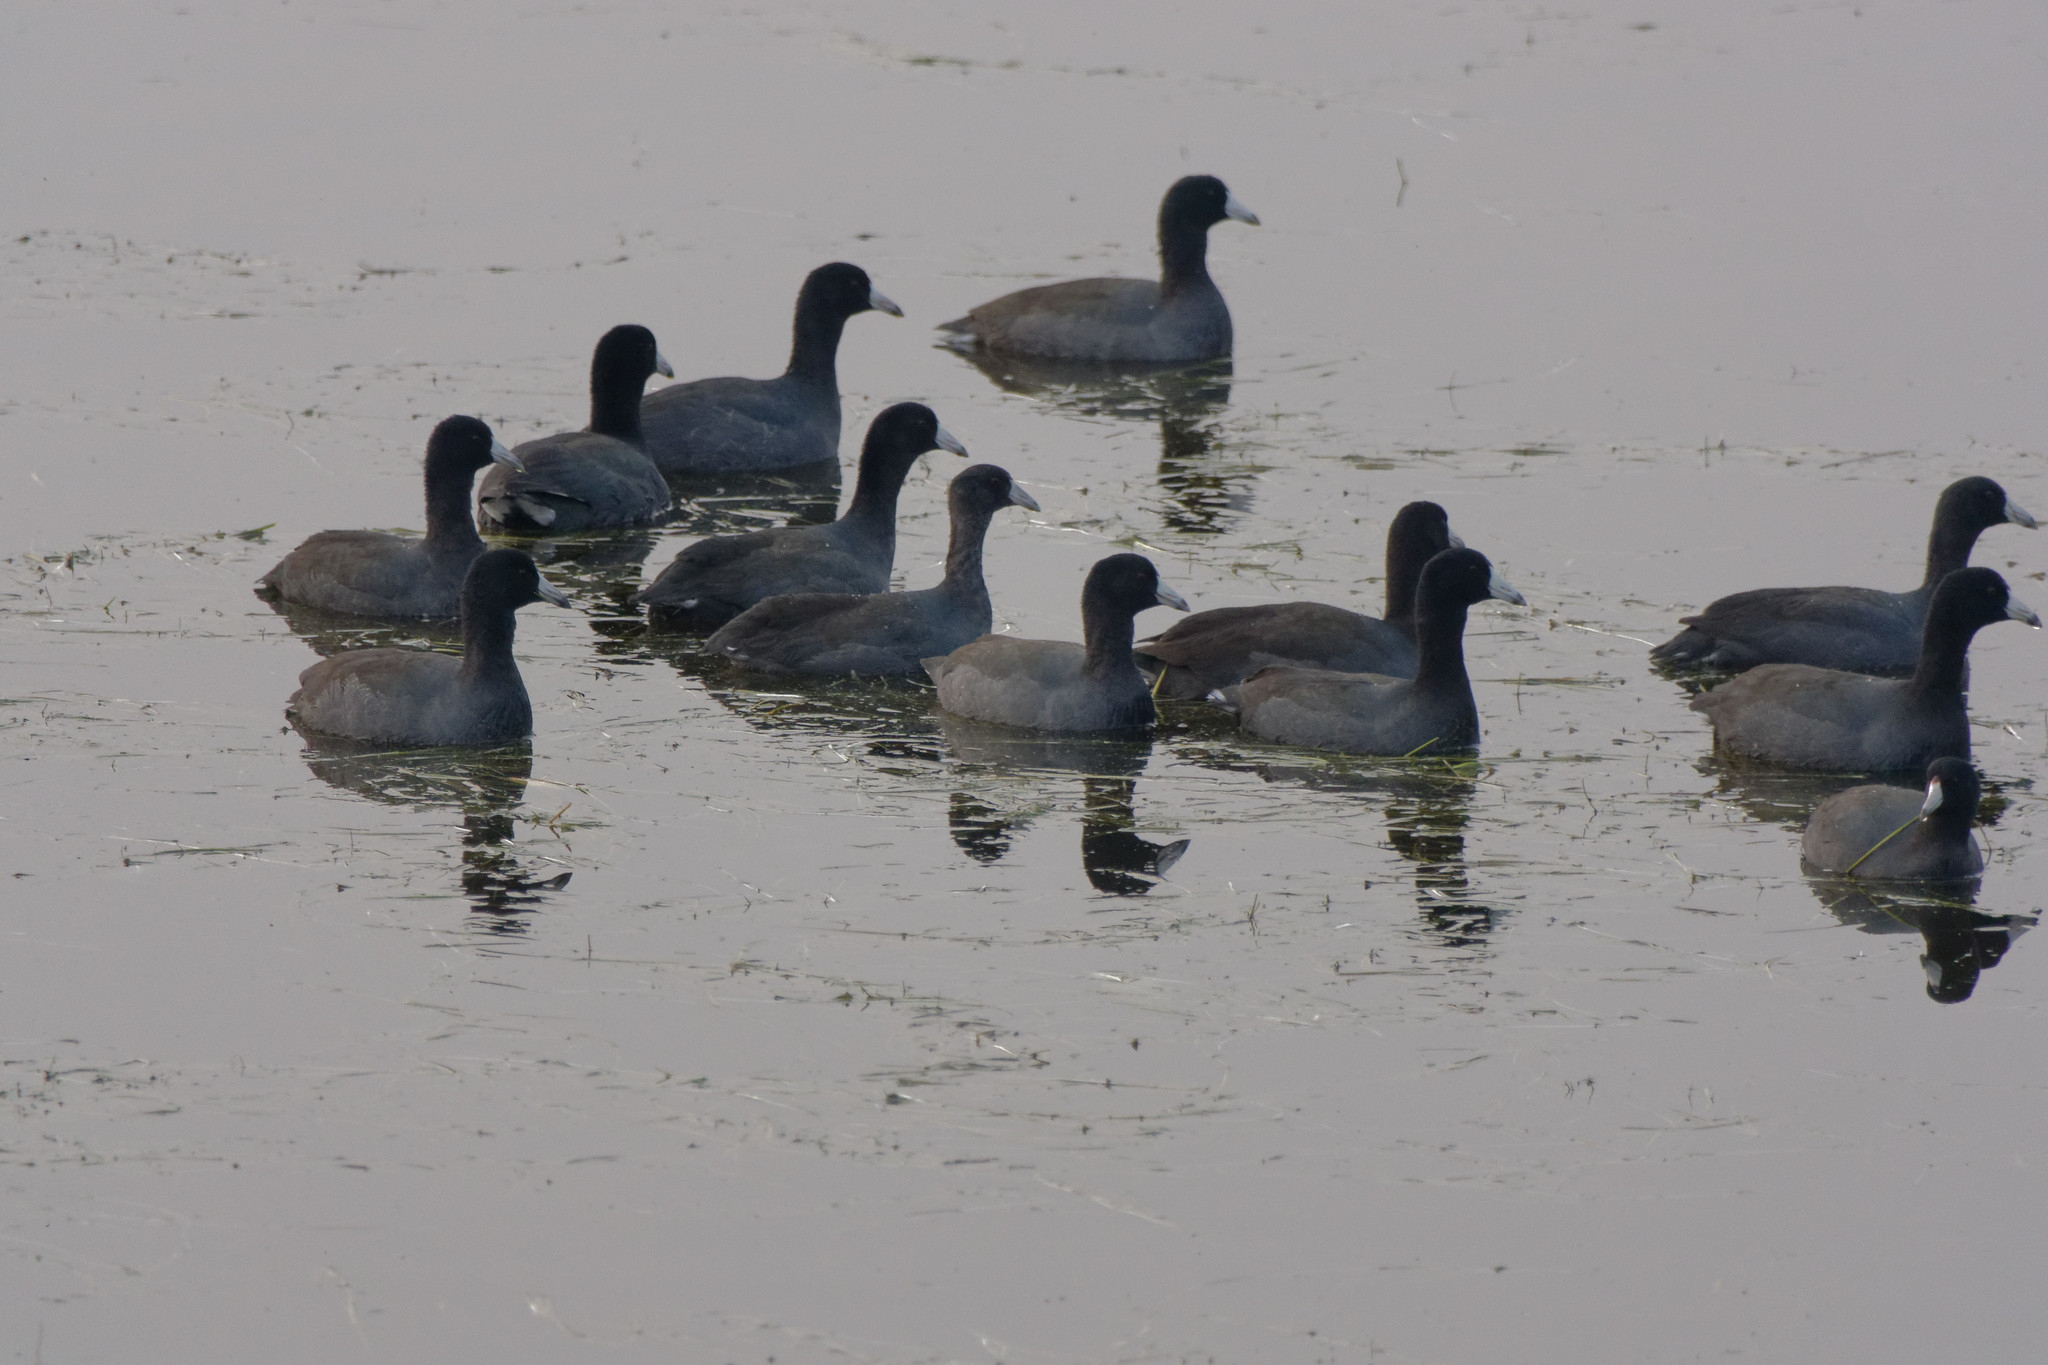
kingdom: Animalia
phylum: Chordata
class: Aves
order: Gruiformes
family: Rallidae
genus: Fulica
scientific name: Fulica americana
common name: American coot
